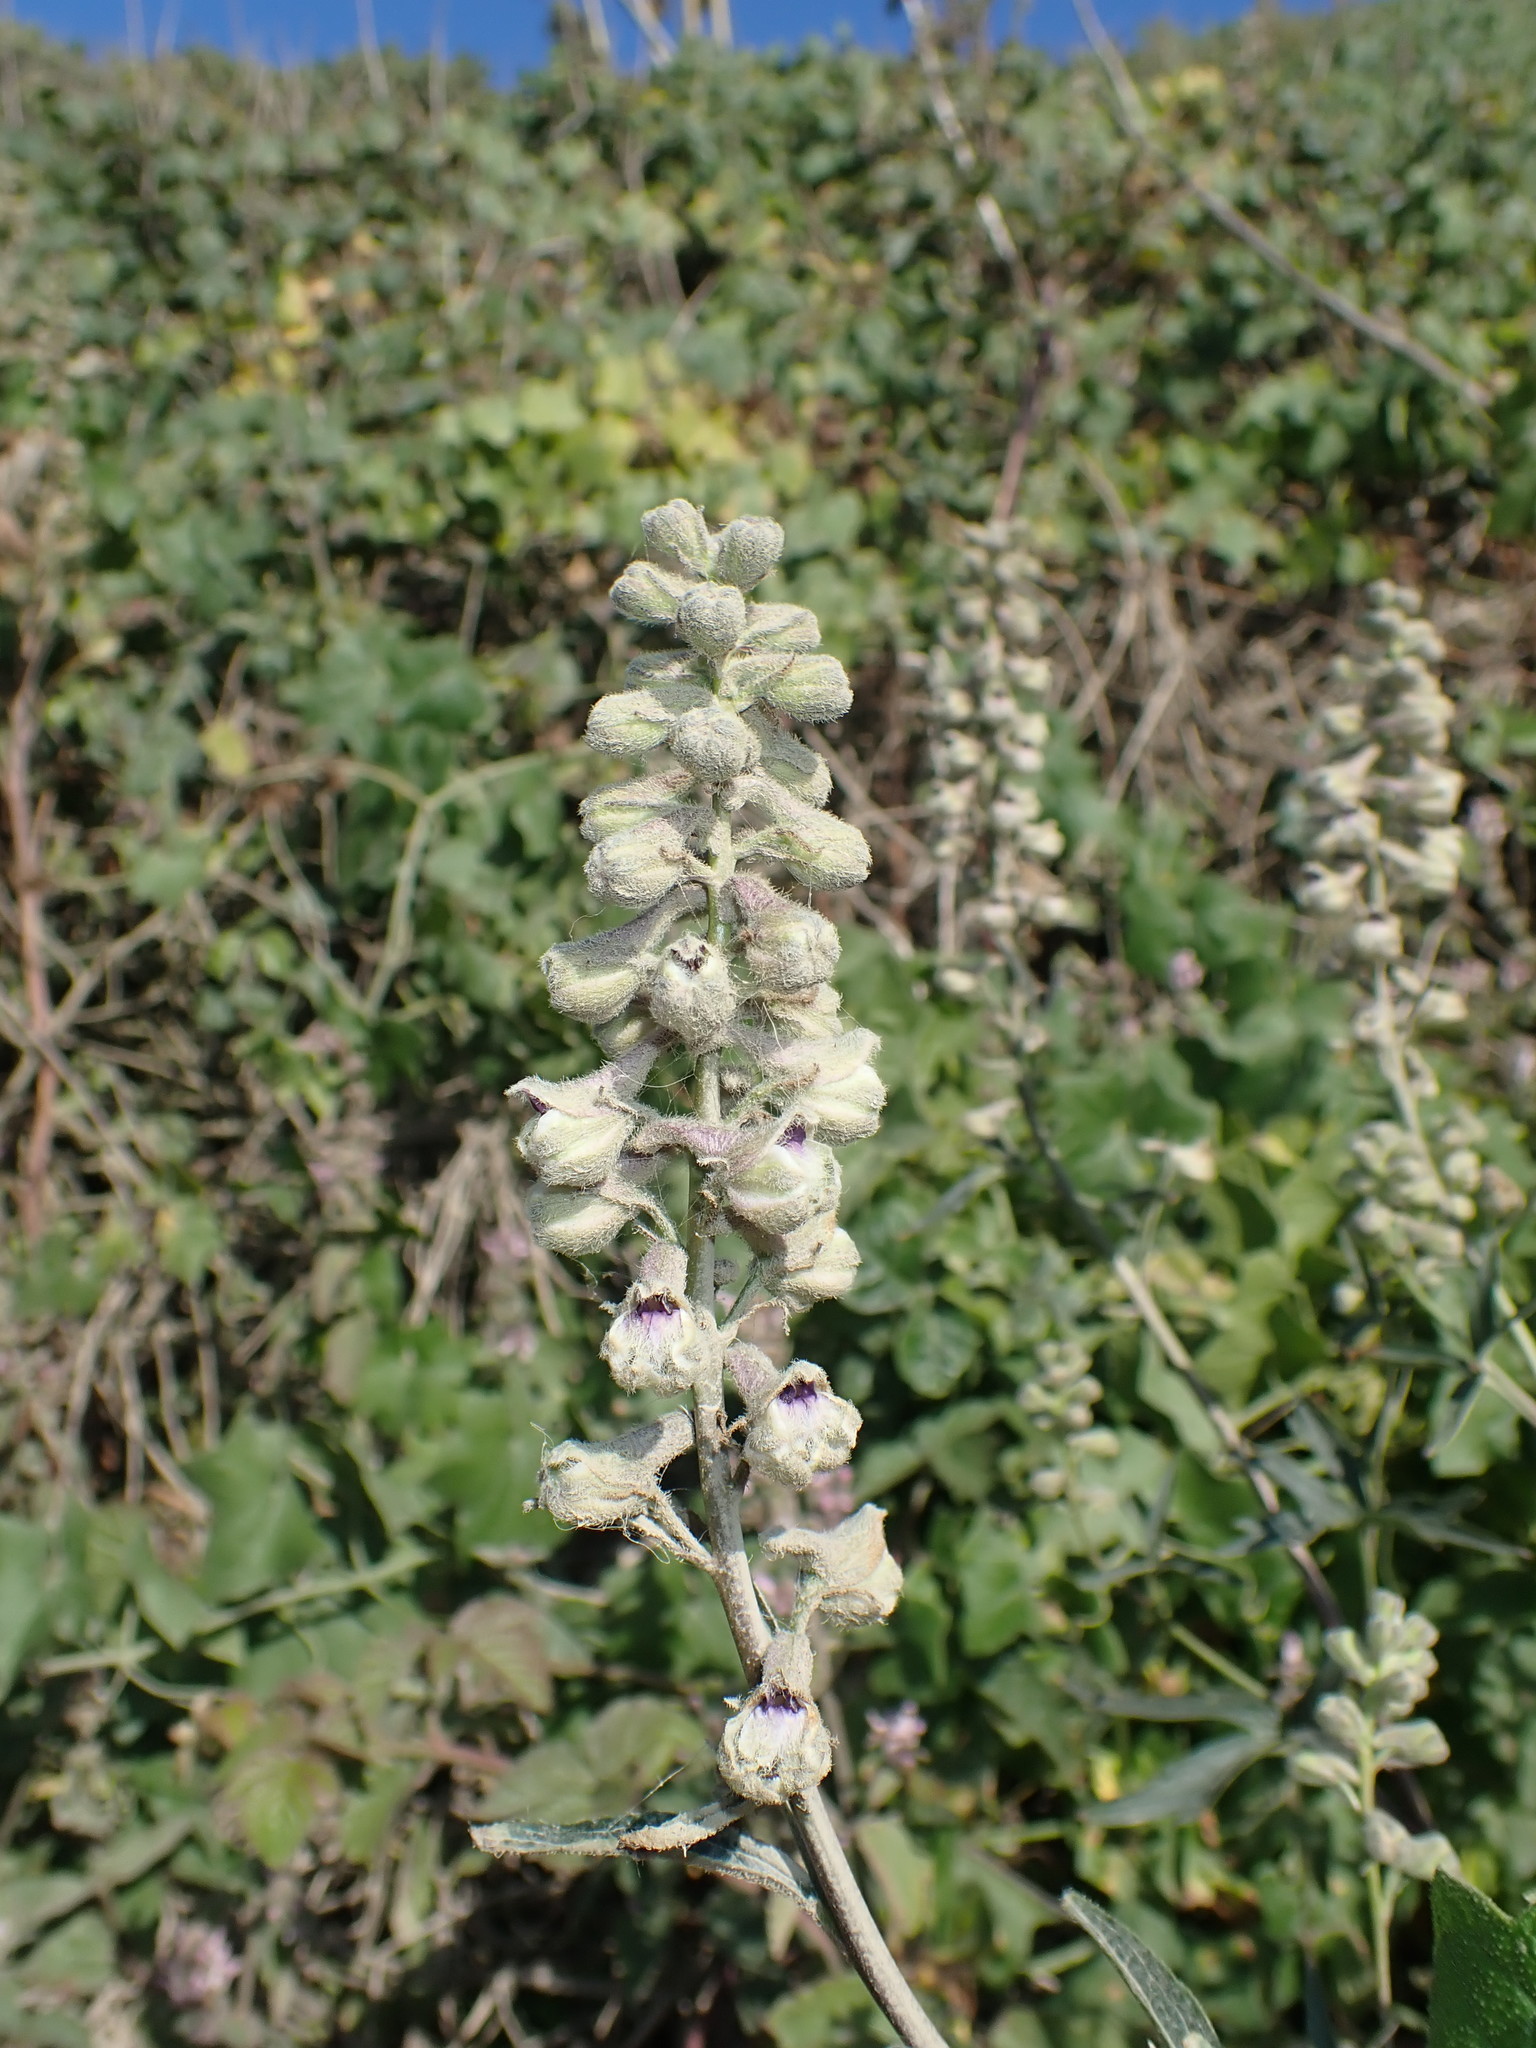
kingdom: Plantae
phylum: Tracheophyta
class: Magnoliopsida
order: Ranunculales
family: Ranunculaceae
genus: Delphinium
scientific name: Delphinium californicum
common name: California larkspur
